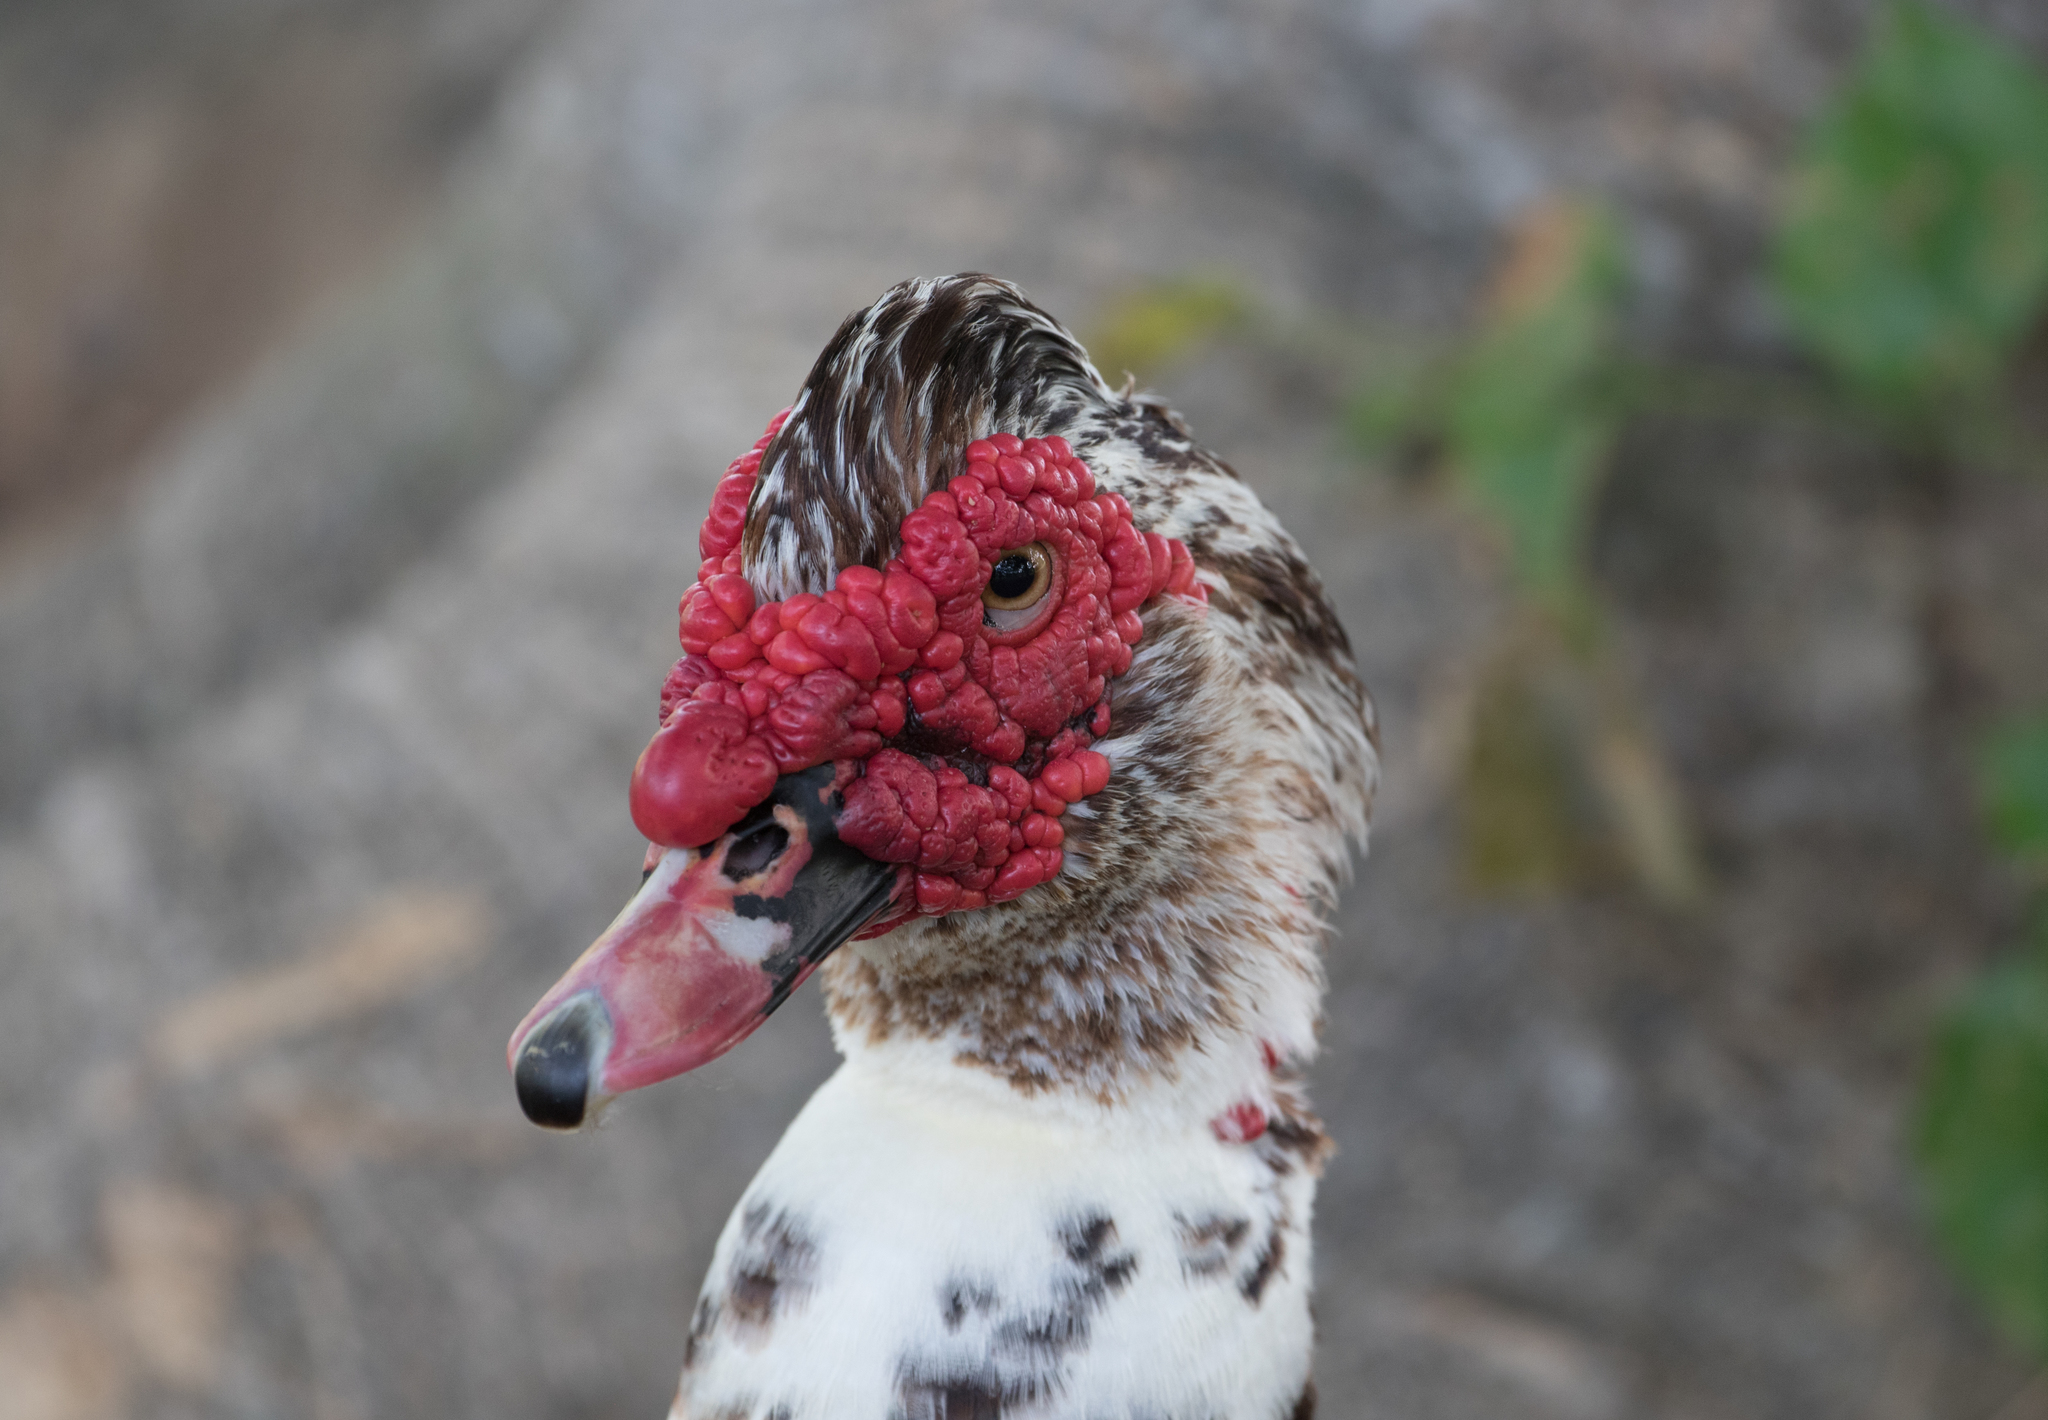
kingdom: Animalia
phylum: Chordata
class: Aves
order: Anseriformes
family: Anatidae
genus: Cairina
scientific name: Cairina moschata
